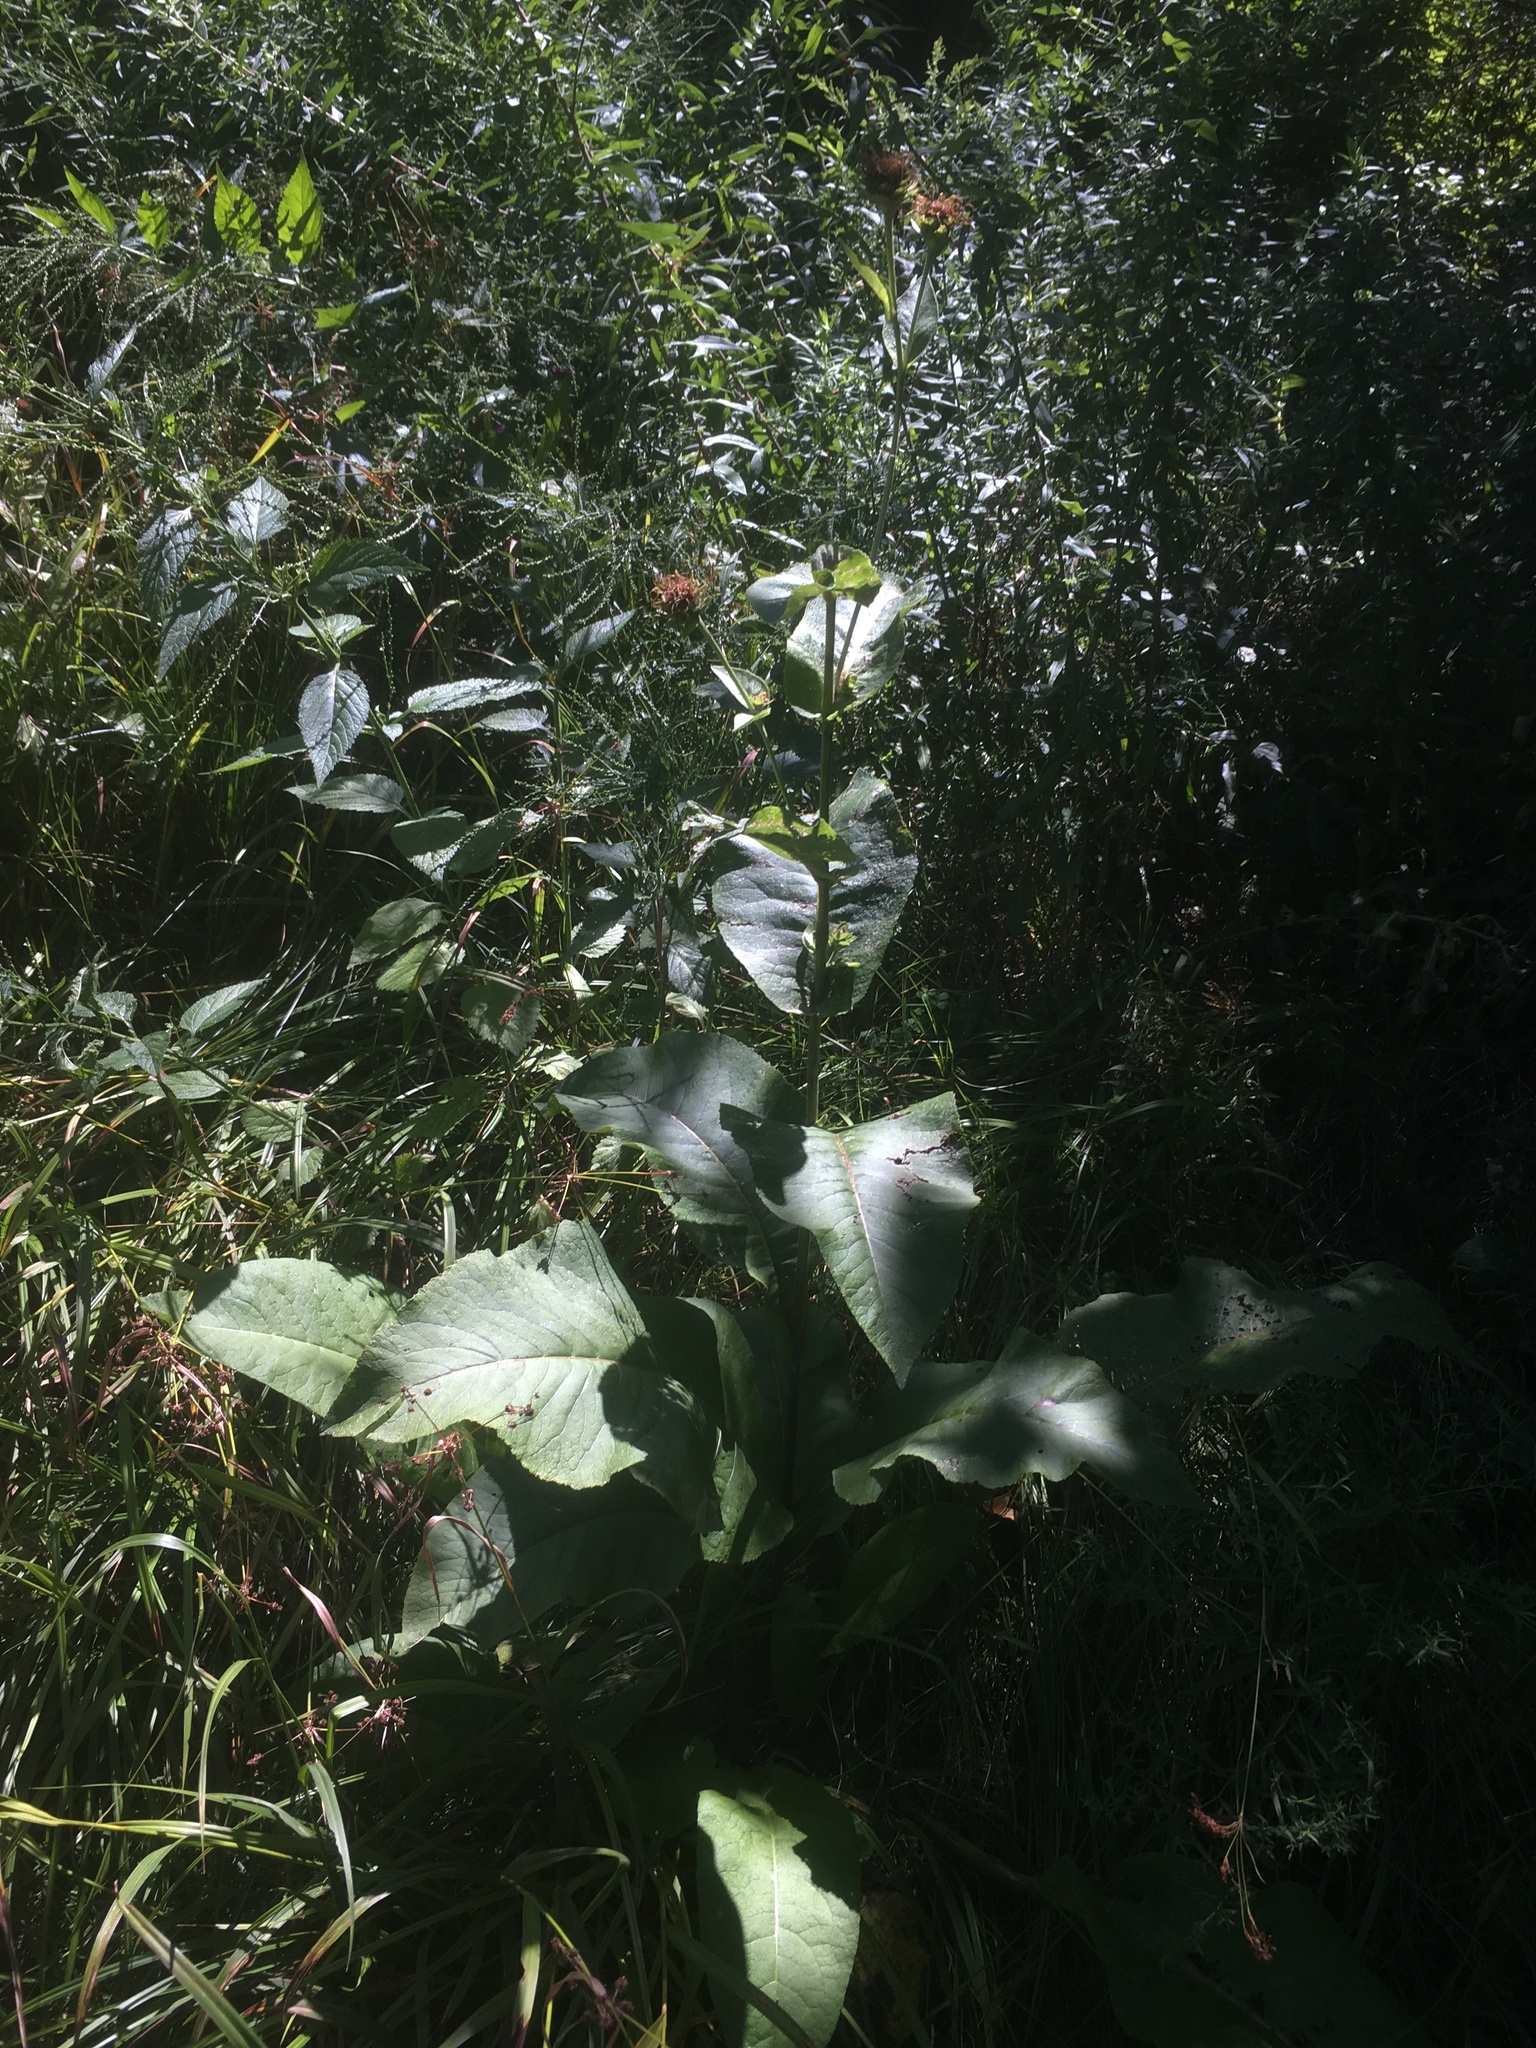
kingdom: Plantae
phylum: Tracheophyta
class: Magnoliopsida
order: Asterales
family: Asteraceae
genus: Inula
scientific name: Inula helenium
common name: Elecampane
